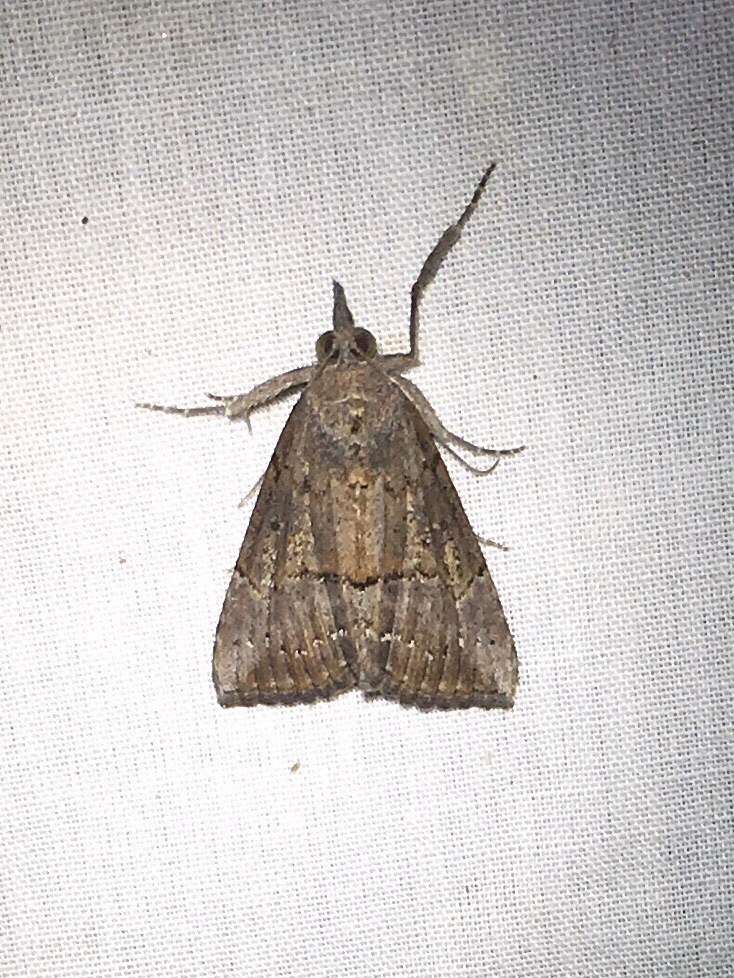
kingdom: Animalia
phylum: Arthropoda
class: Insecta
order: Lepidoptera
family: Erebidae
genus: Hypena
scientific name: Hypena scabra
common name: Green cloverworm
